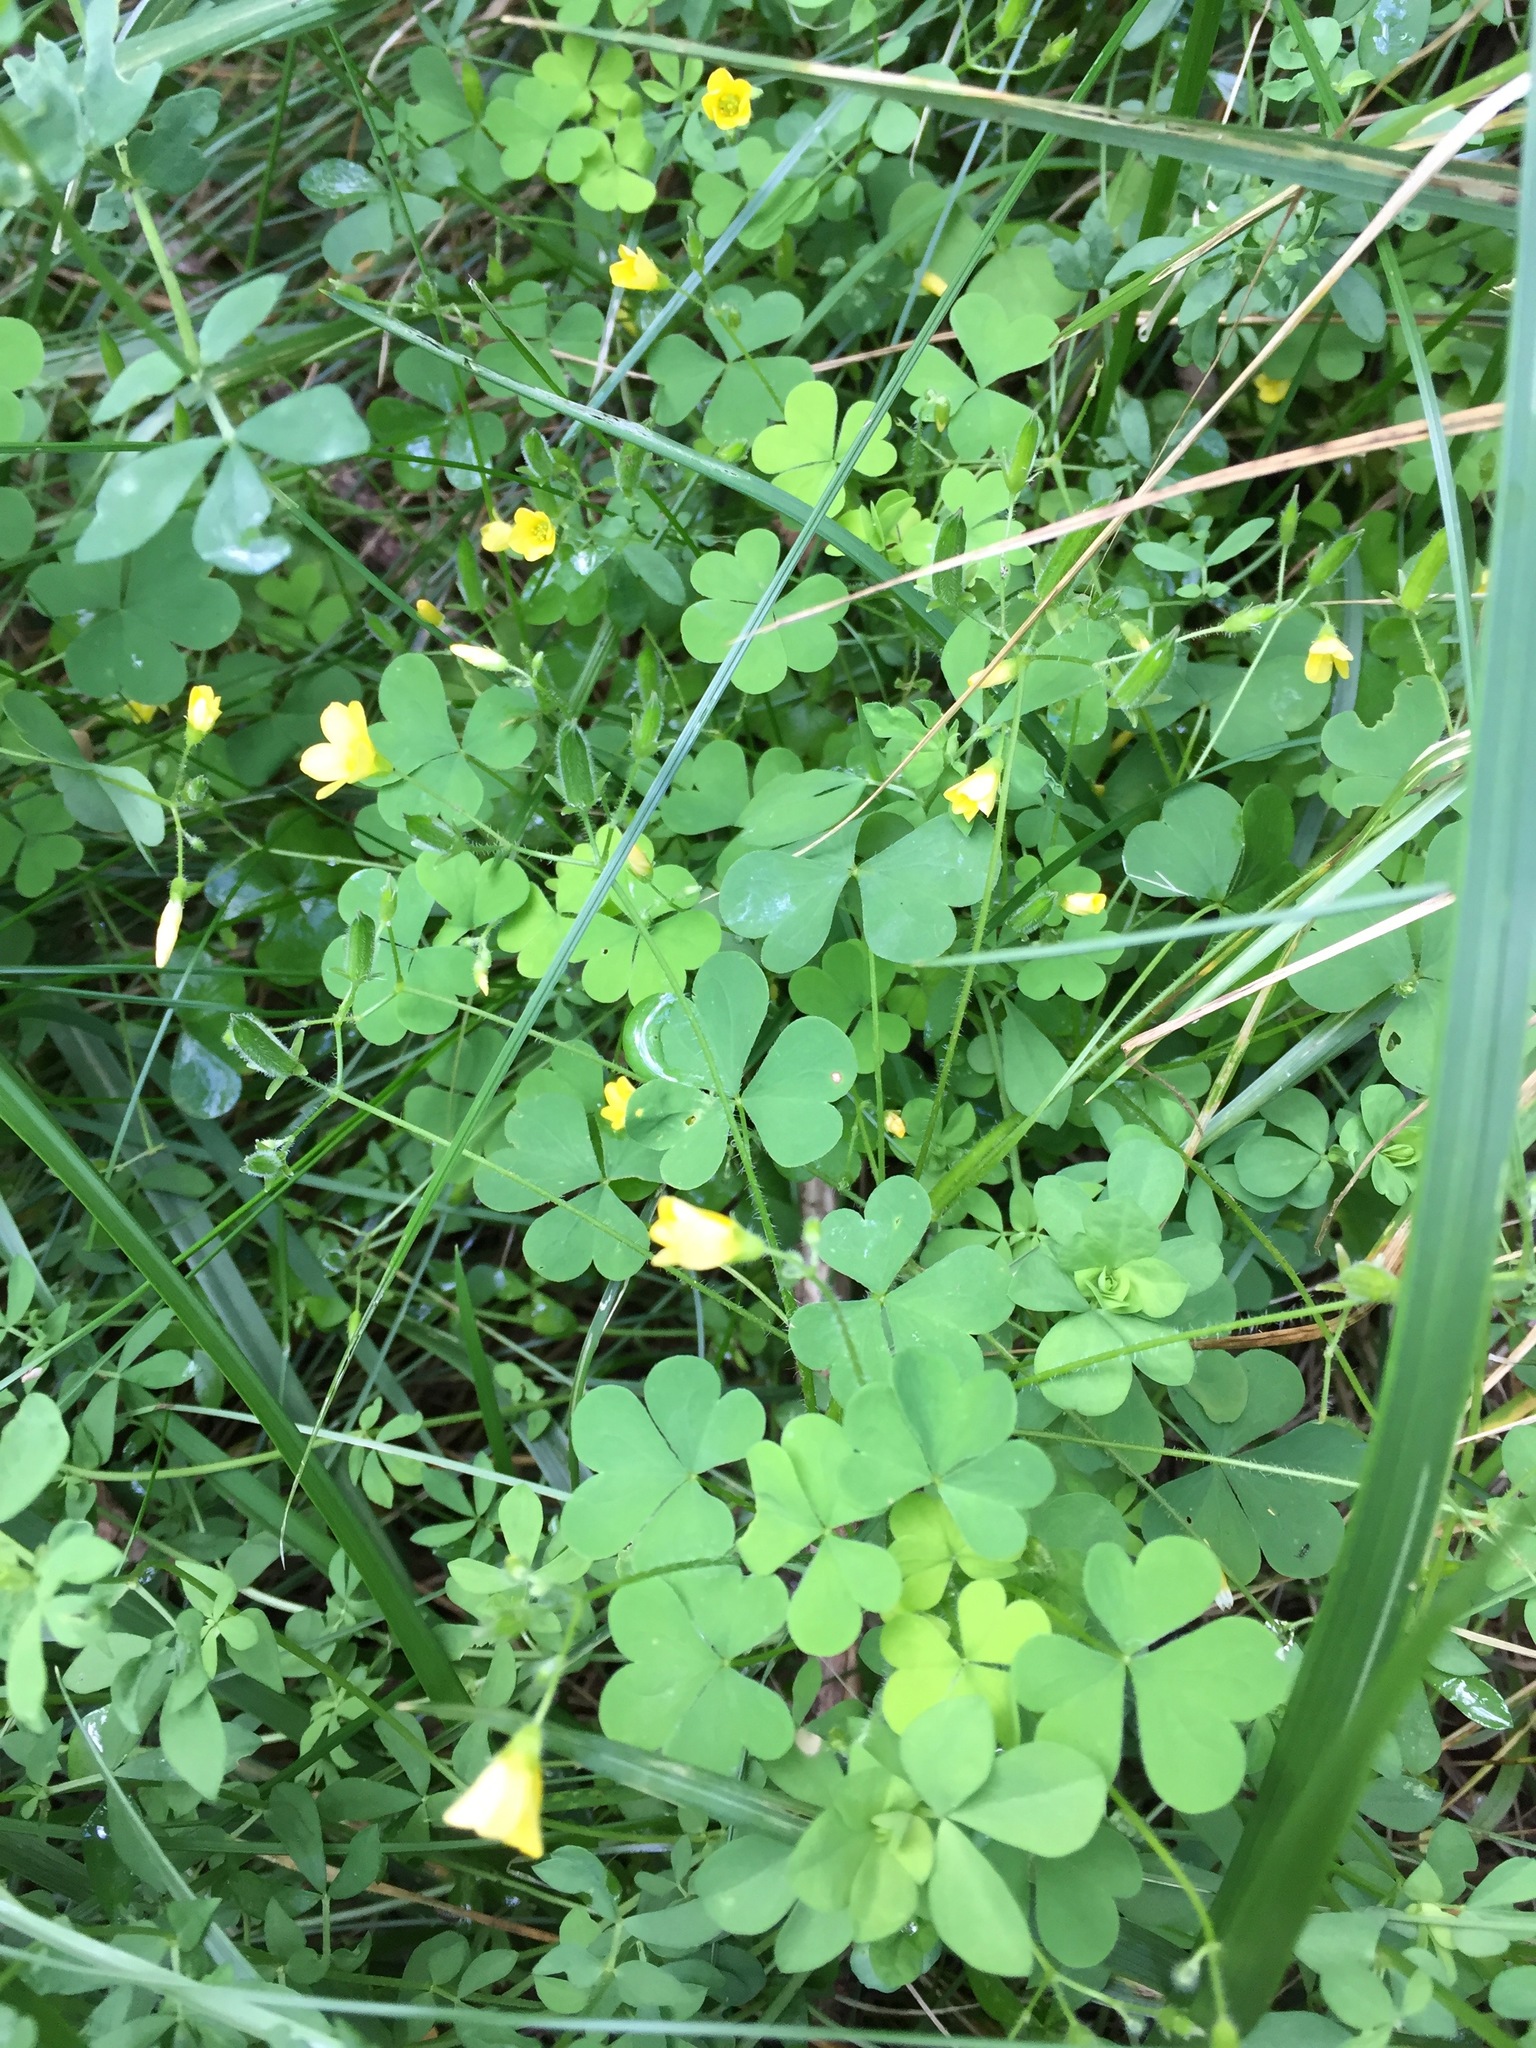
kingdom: Plantae
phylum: Tracheophyta
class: Magnoliopsida
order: Oxalidales
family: Oxalidaceae
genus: Oxalis
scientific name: Oxalis stricta
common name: Upright yellow-sorrel
